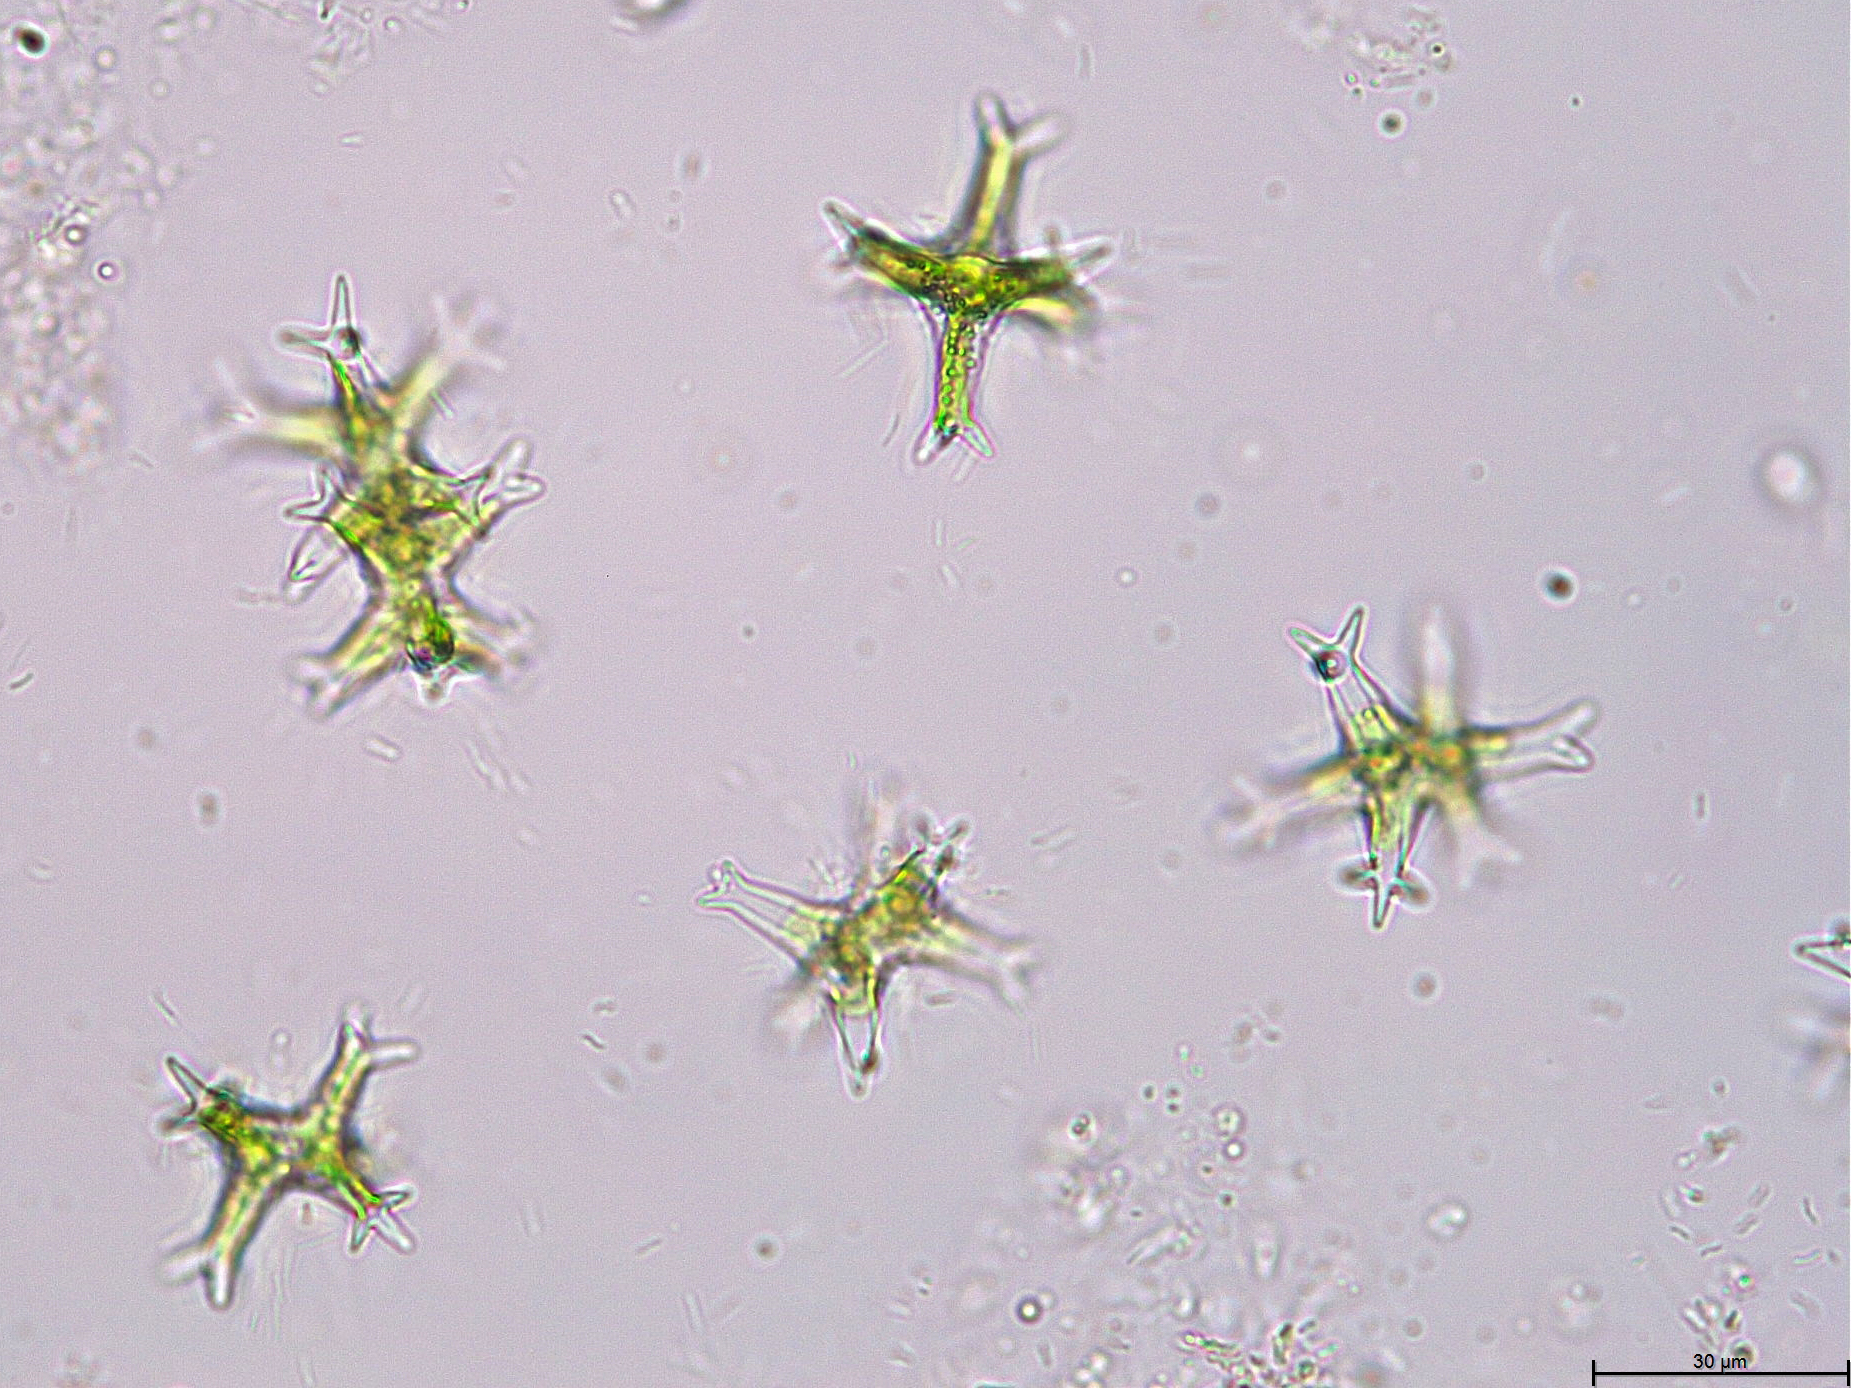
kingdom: Plantae
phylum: Charophyta
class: Conjugatophyceae
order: Desmidiales
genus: Staurastrum
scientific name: Staurastrum brachiatum
